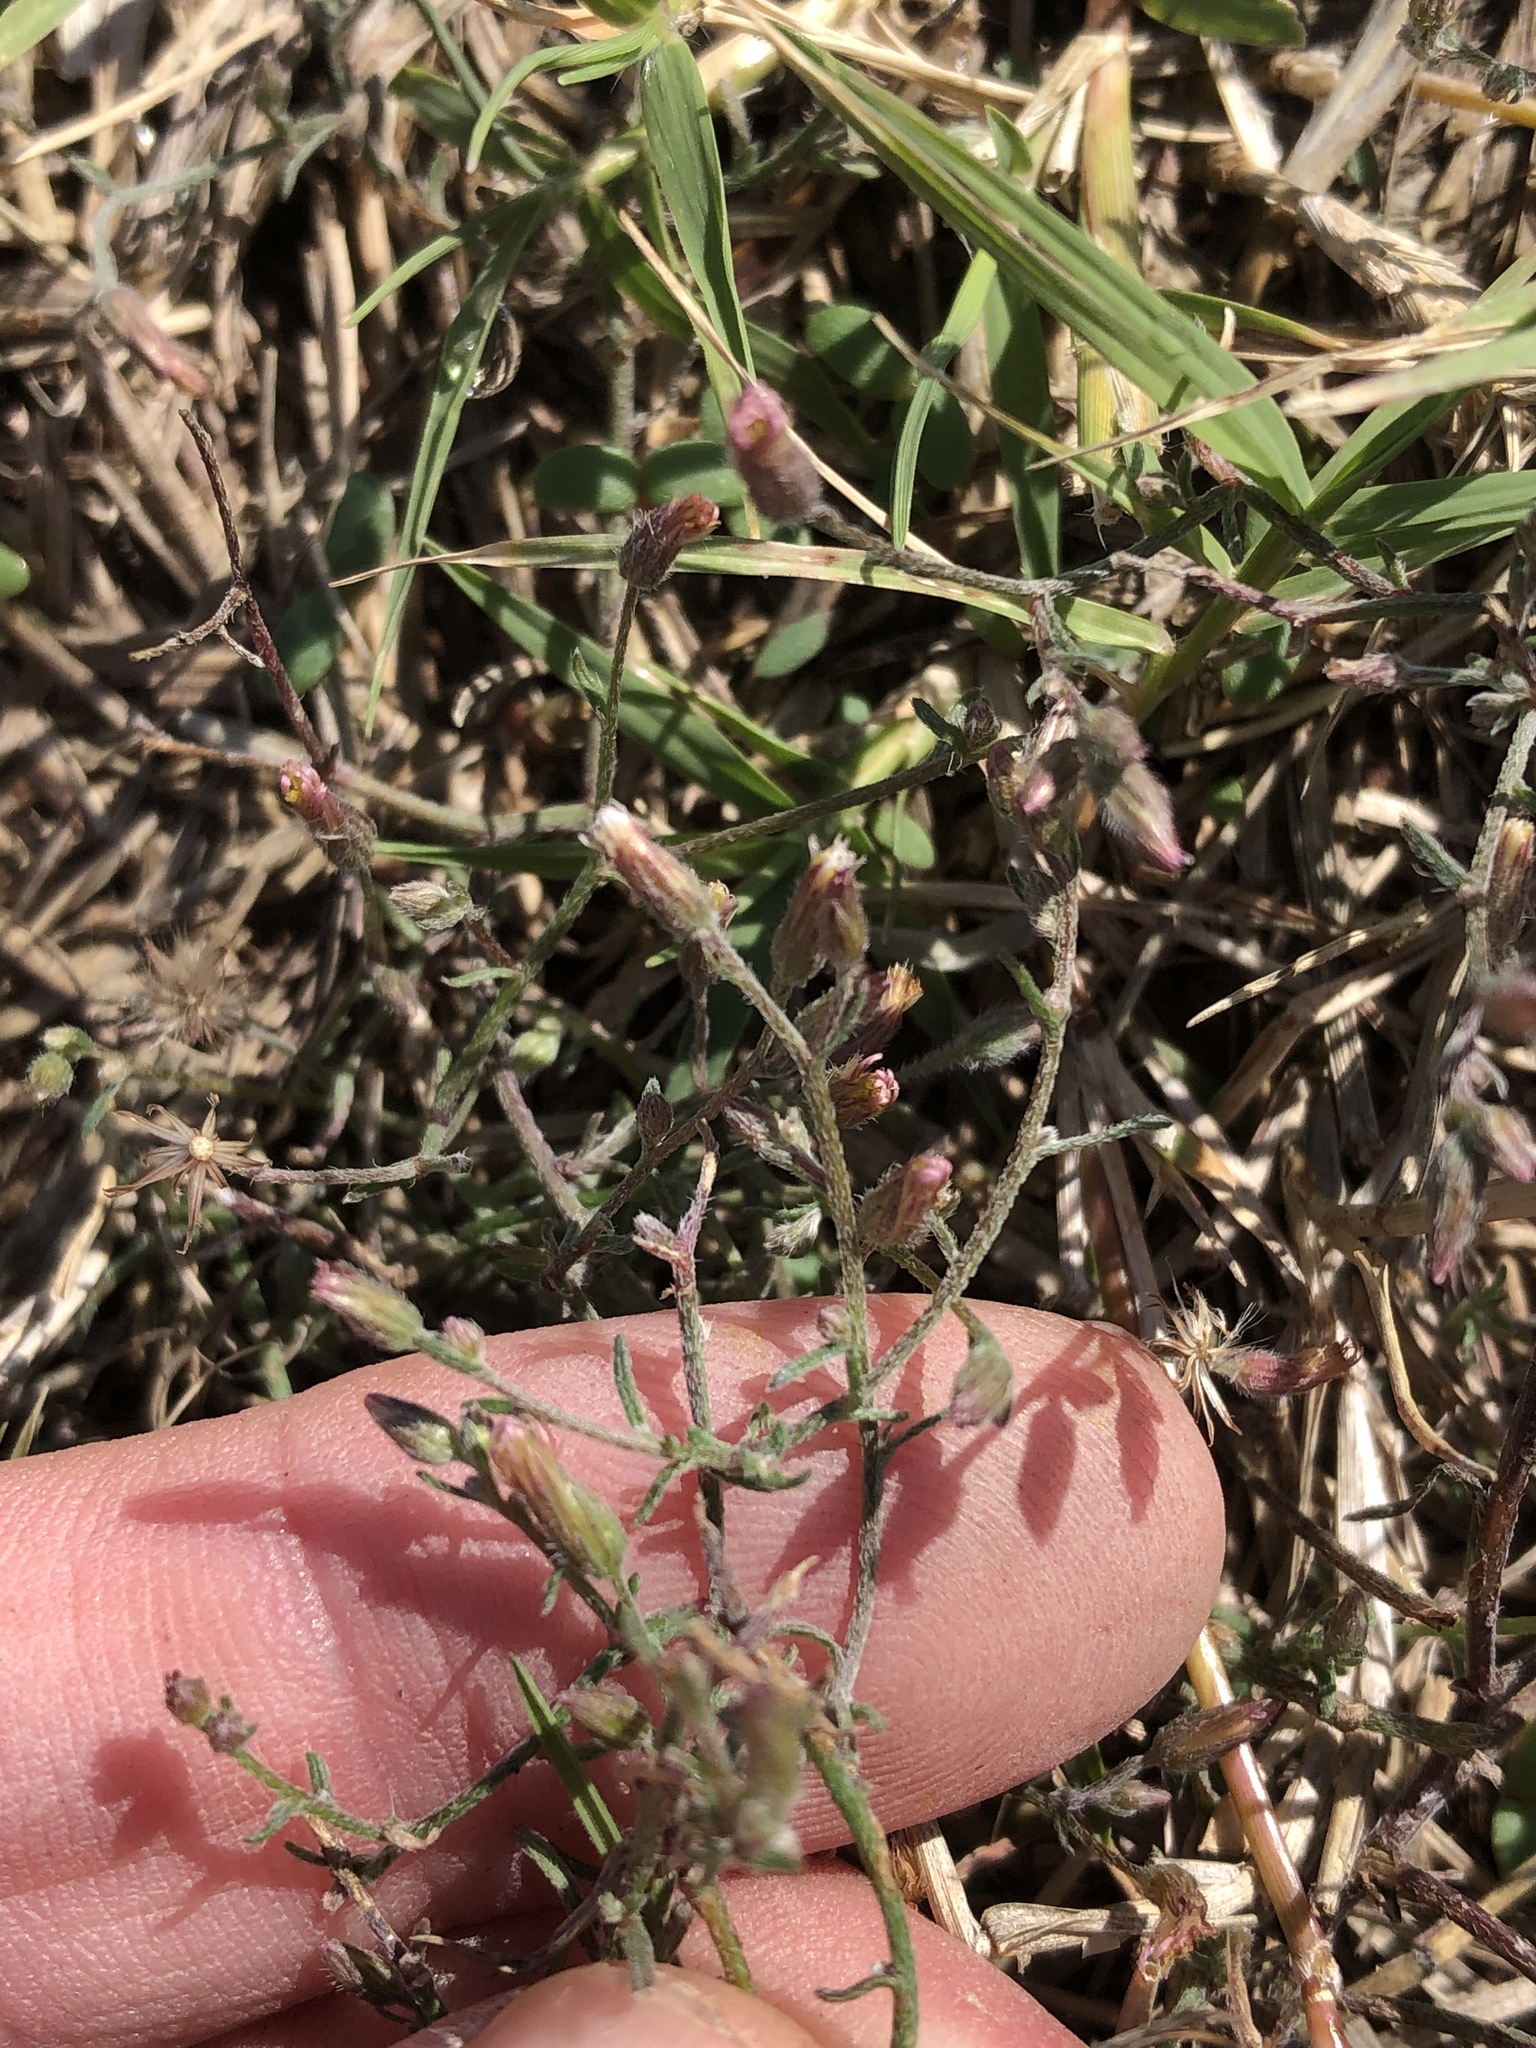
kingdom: Plantae
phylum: Tracheophyta
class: Magnoliopsida
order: Asterales
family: Asteraceae
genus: Erigeron
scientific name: Erigeron divaricatus
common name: Dwarf conyza
